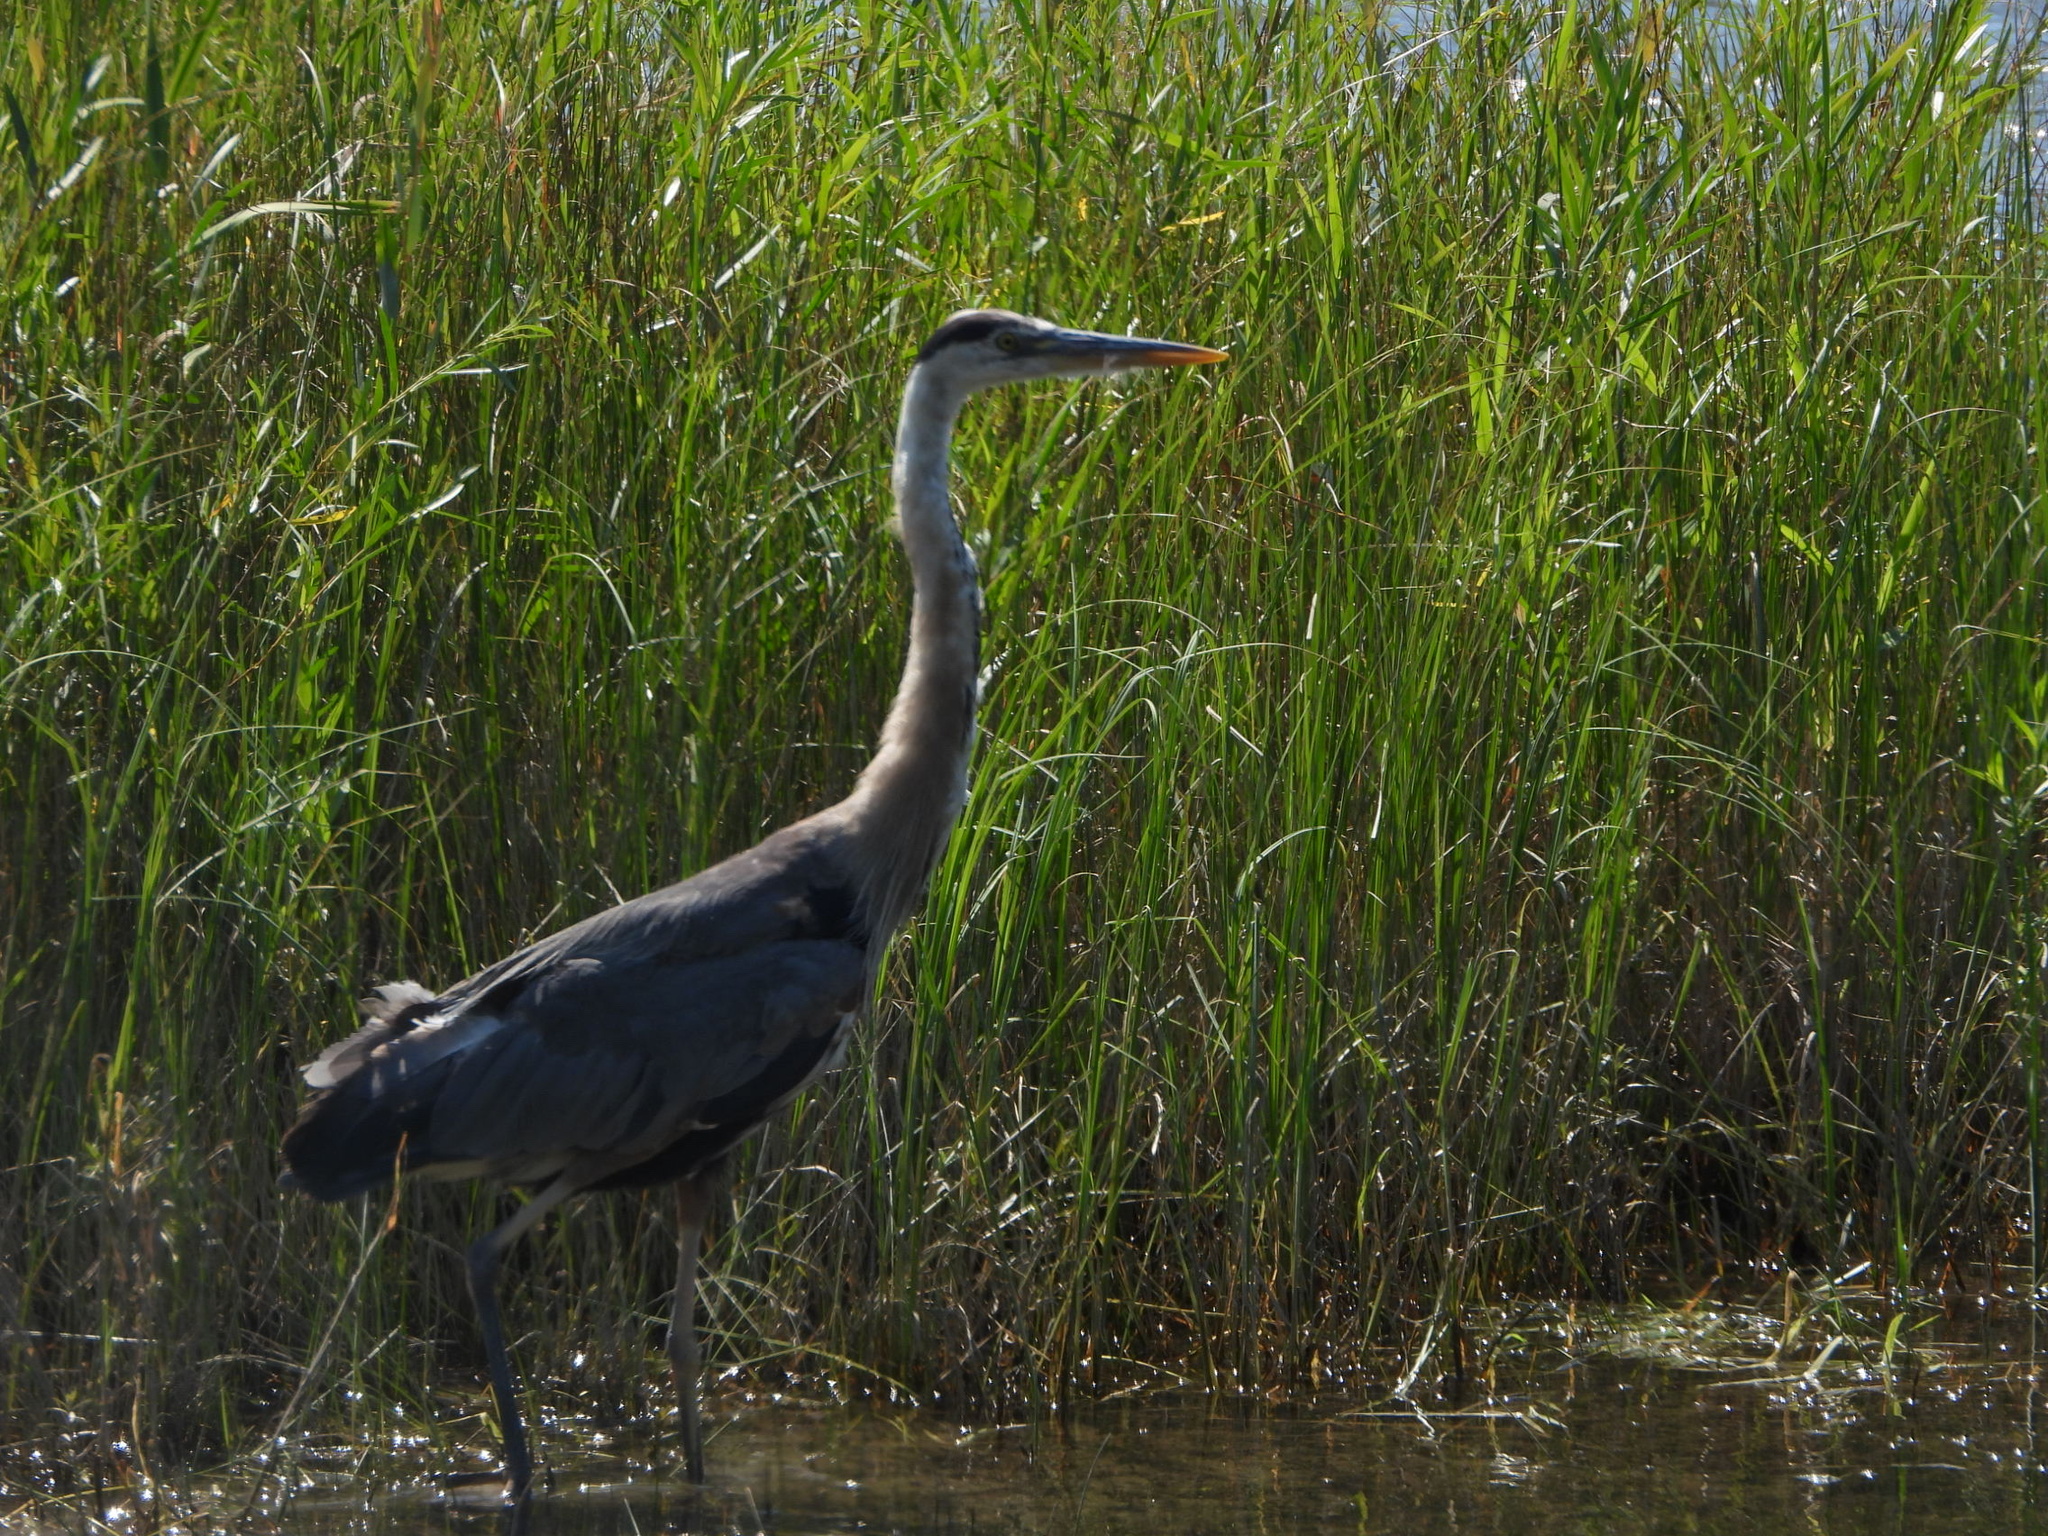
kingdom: Animalia
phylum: Chordata
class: Aves
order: Pelecaniformes
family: Ardeidae
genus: Ardea
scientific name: Ardea herodias
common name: Great blue heron
